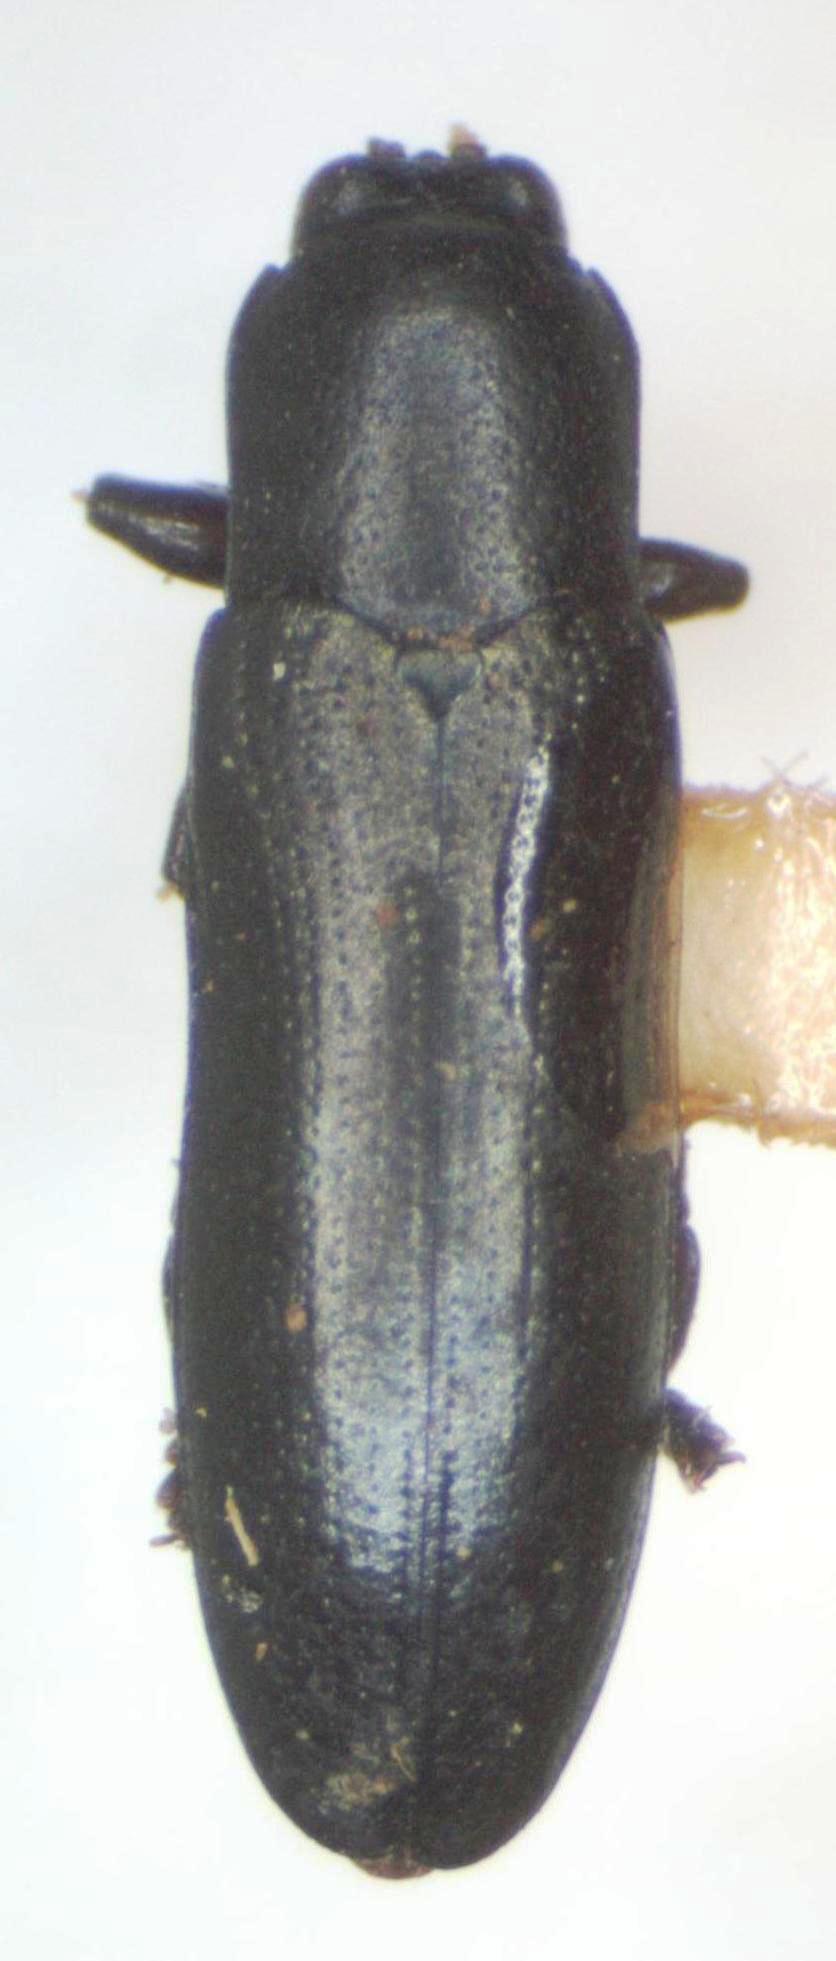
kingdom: Animalia
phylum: Arthropoda
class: Insecta
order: Coleoptera
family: Chrysomelidae
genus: Stenispa
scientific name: Stenispa metallica
